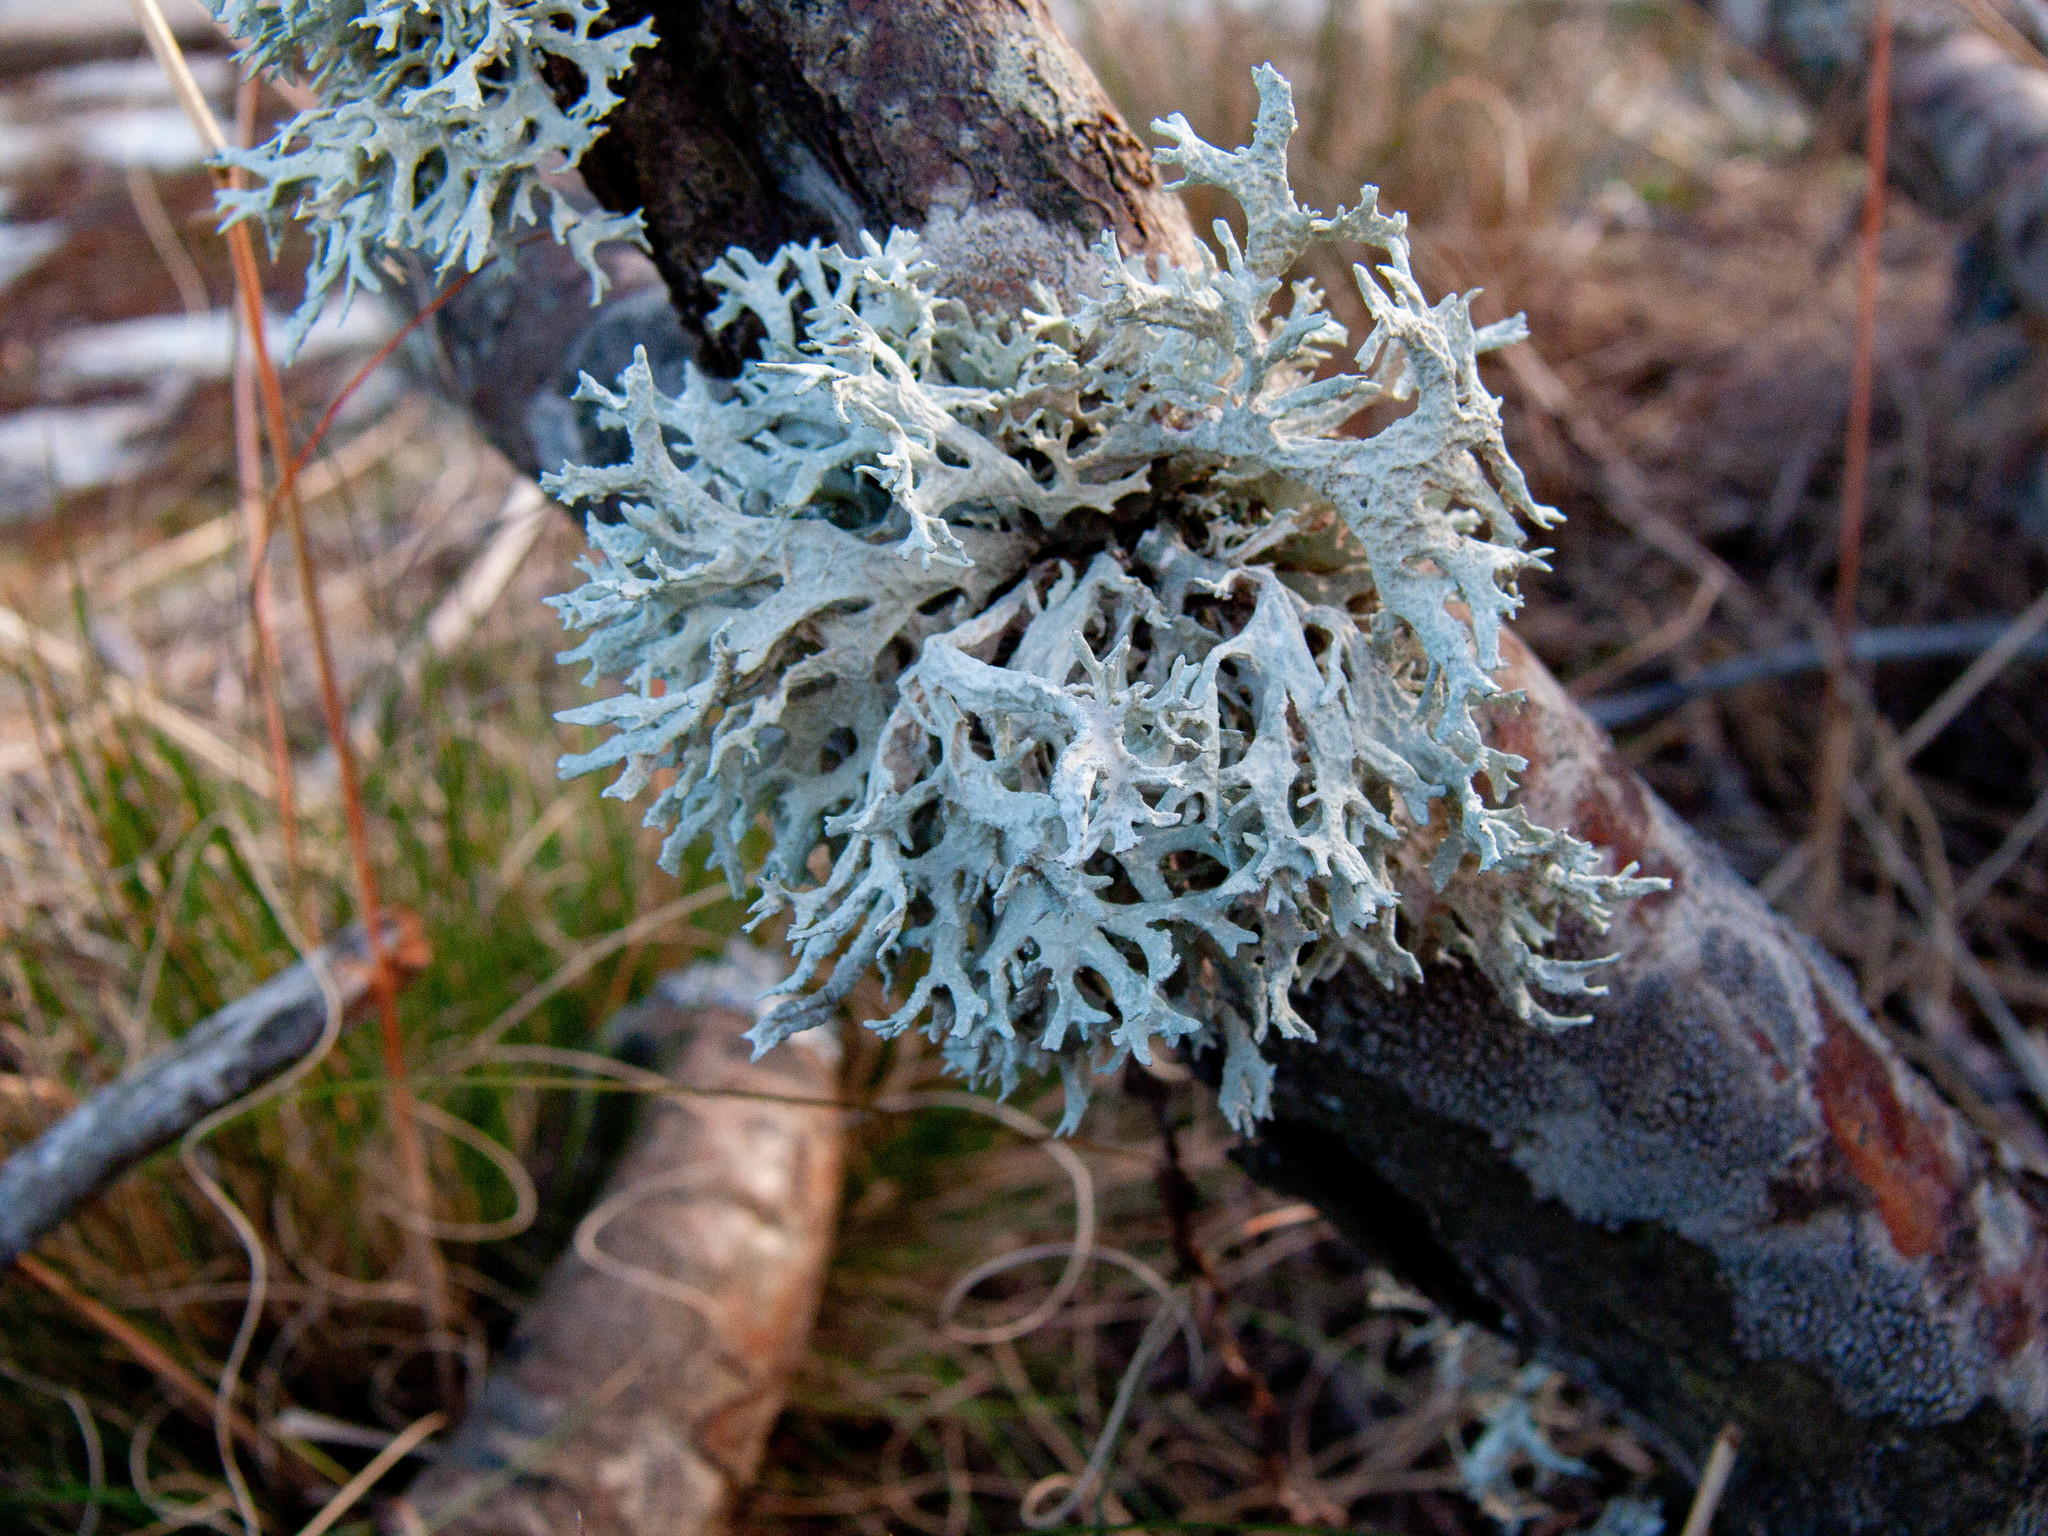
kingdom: Fungi
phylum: Ascomycota
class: Lecanoromycetes
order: Lecanorales
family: Parmeliaceae
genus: Evernia
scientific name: Evernia prunastri
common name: Oak moss
